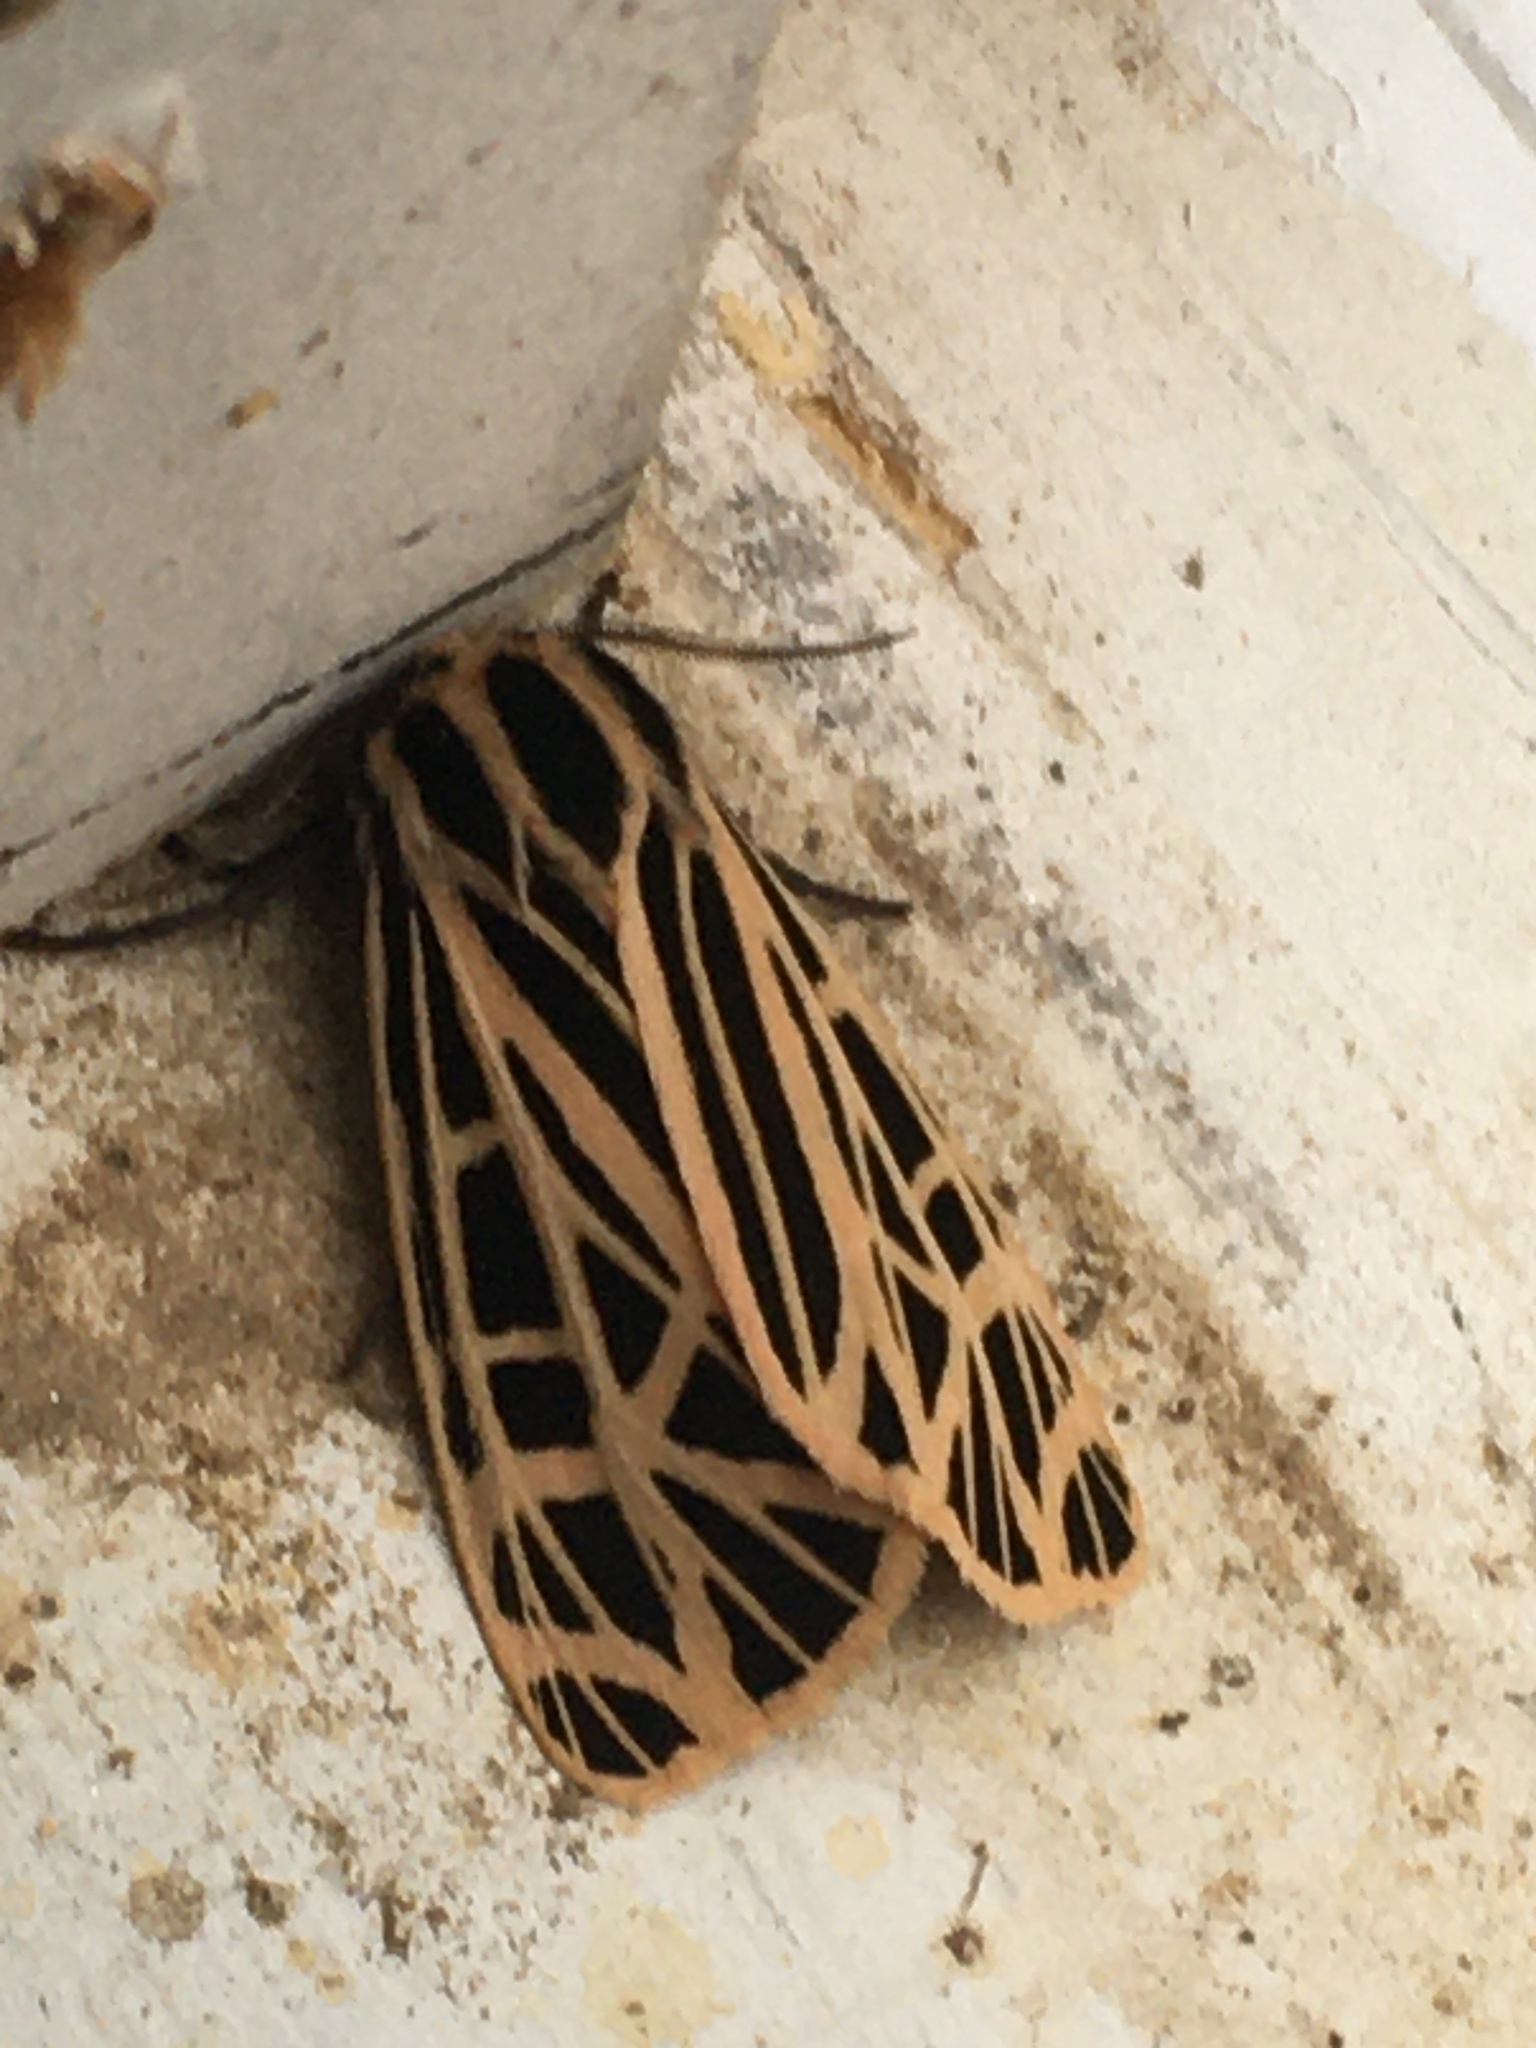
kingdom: Animalia
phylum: Arthropoda
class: Insecta
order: Lepidoptera
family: Erebidae
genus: Grammia
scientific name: Grammia virgo
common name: Virgin tiger moth
